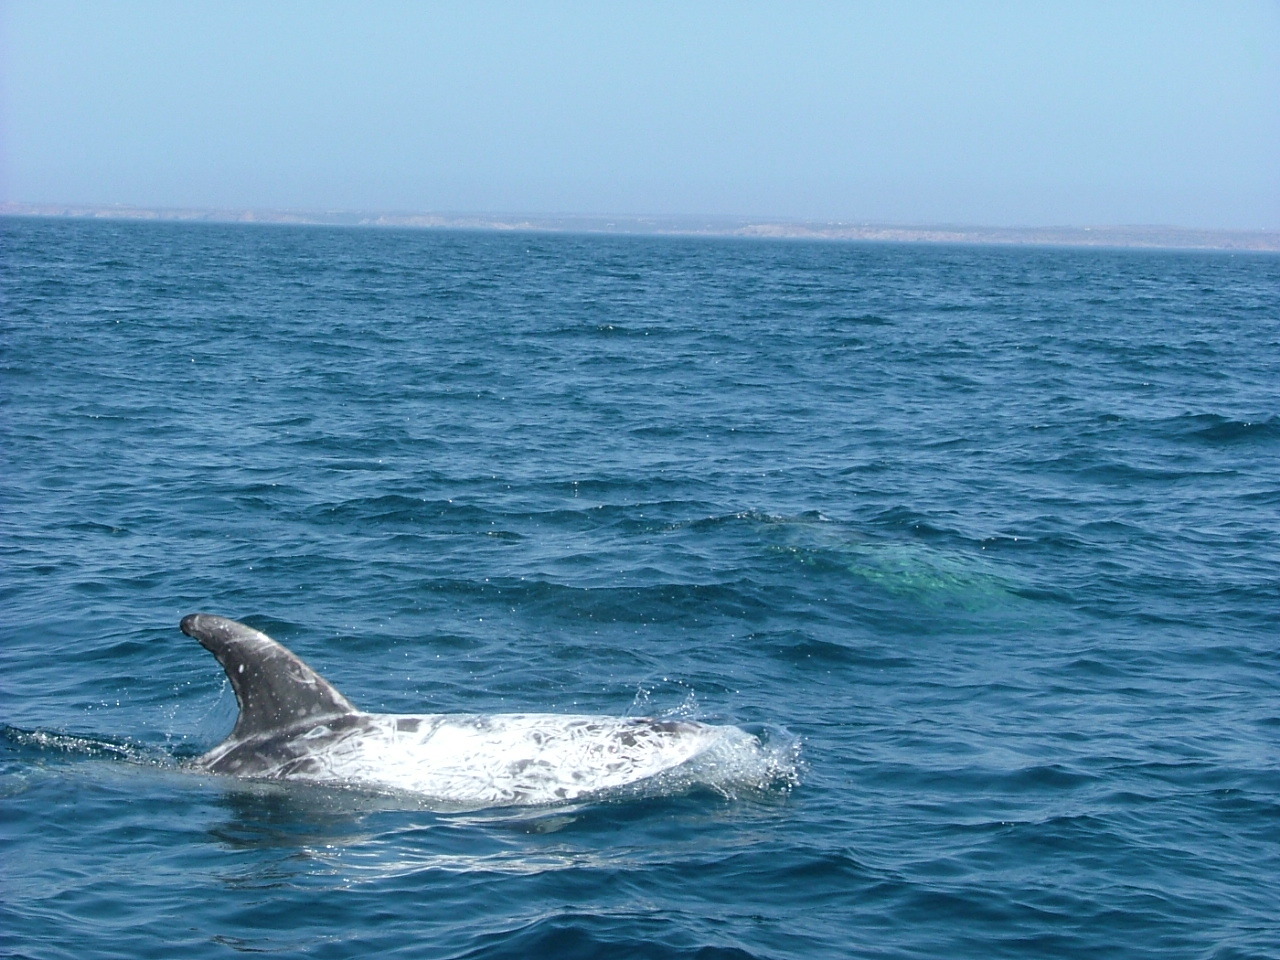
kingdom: Animalia
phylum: Chordata
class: Mammalia
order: Cetacea
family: Delphinidae
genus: Grampus
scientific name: Grampus griseus
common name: Risso's dolphin
